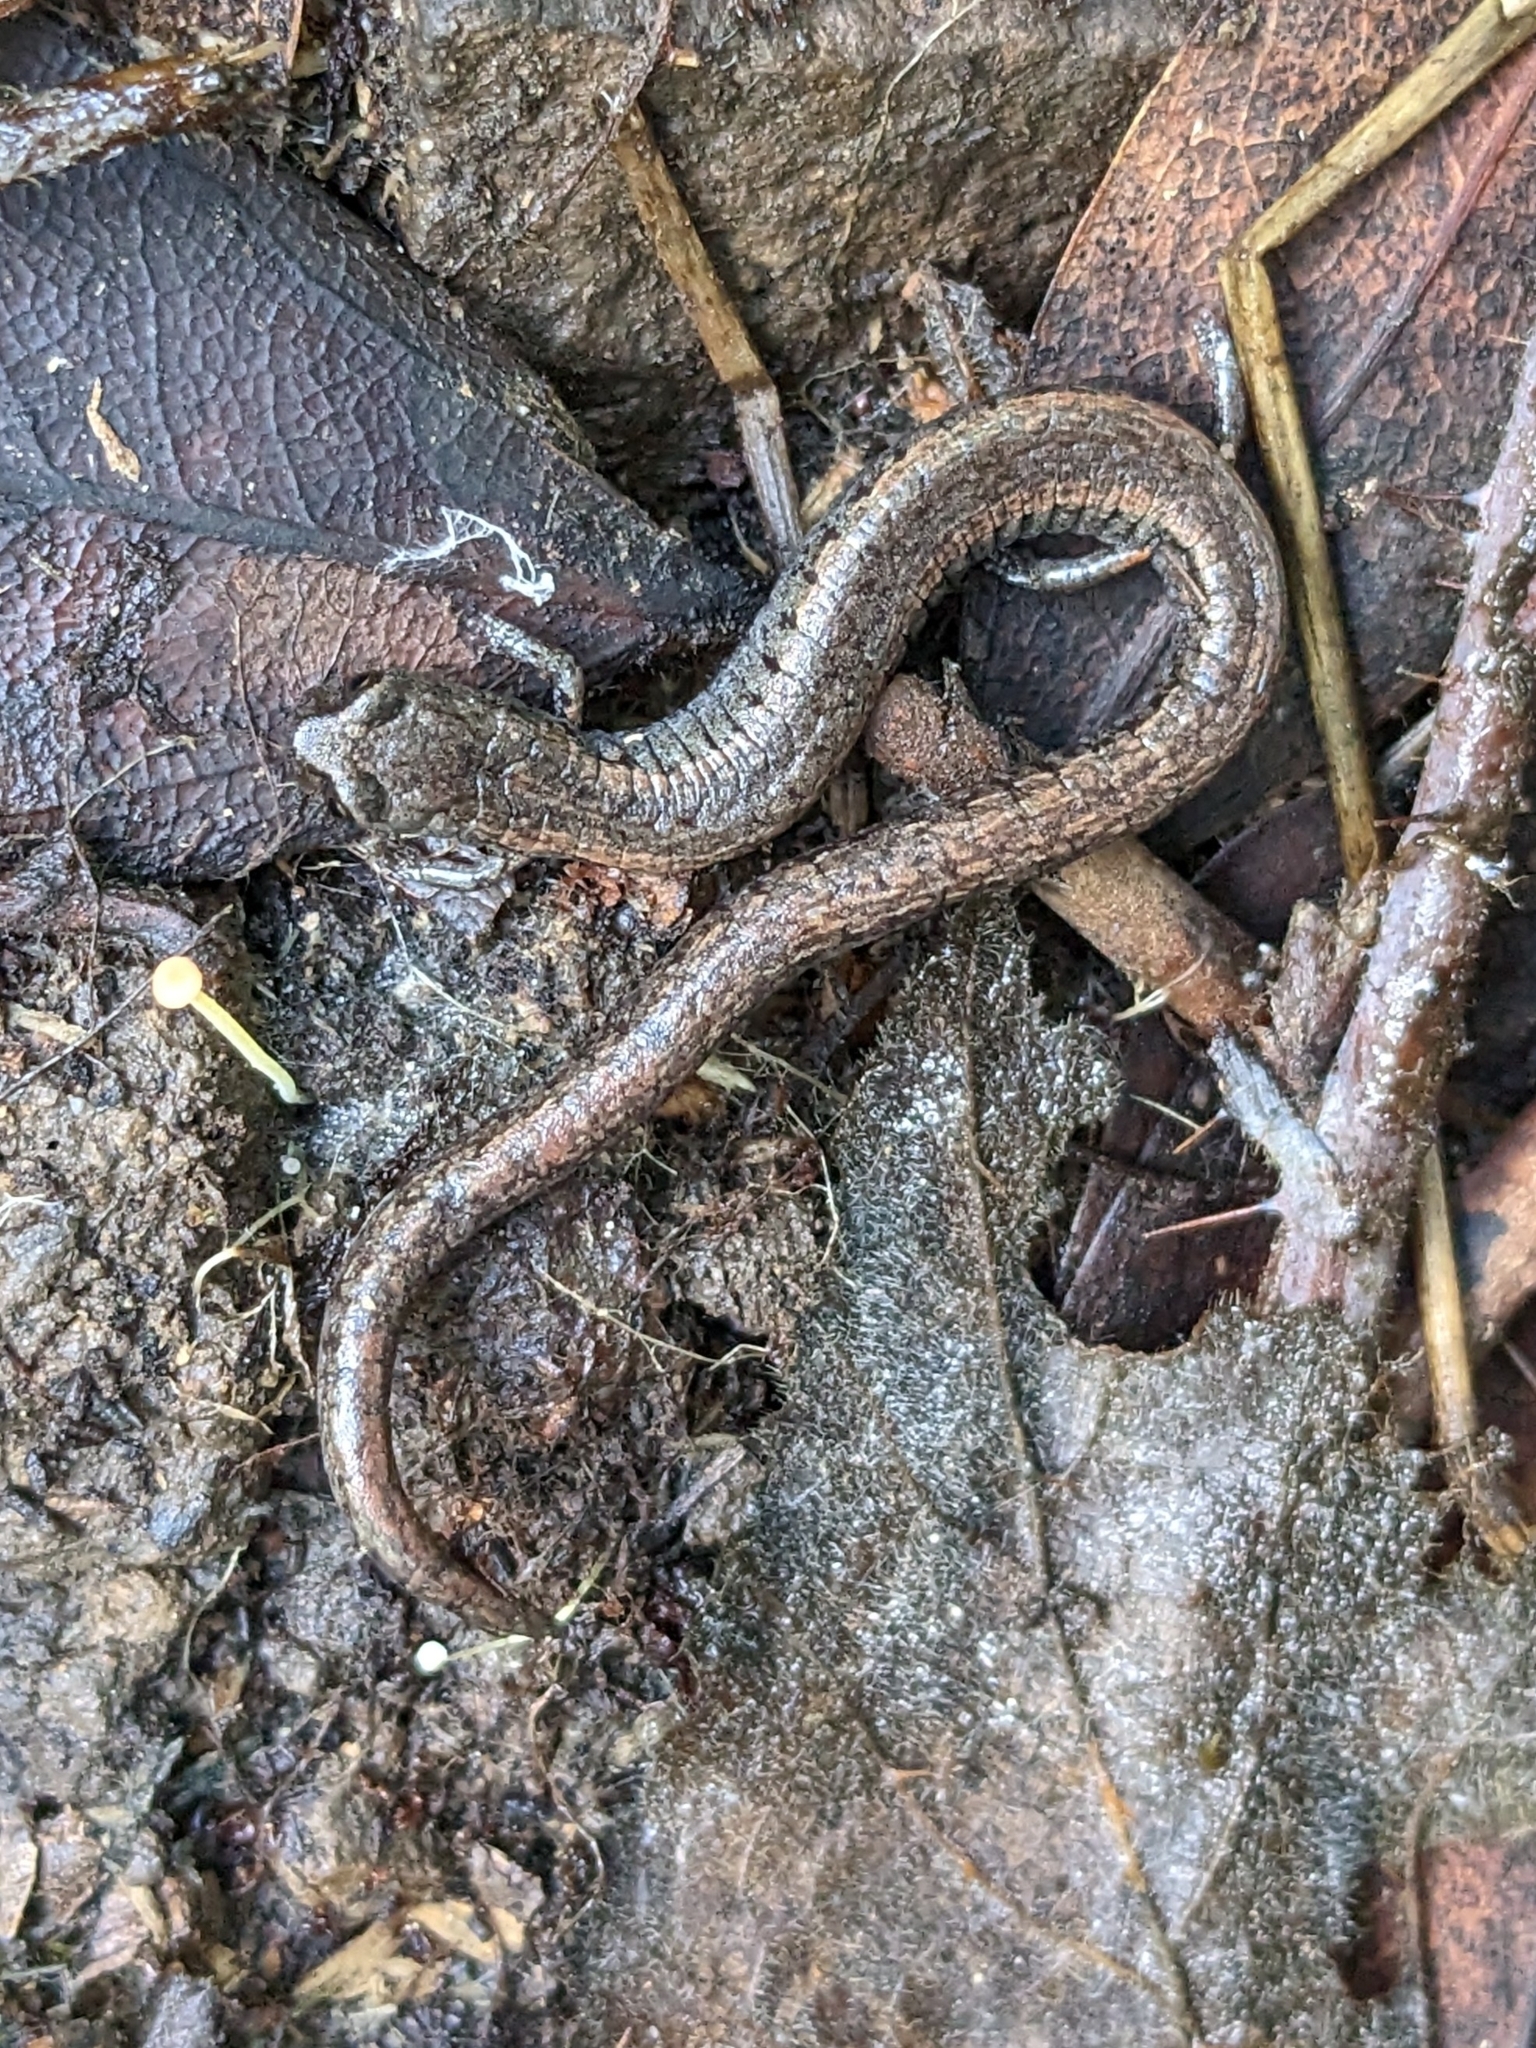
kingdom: Animalia
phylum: Chordata
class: Amphibia
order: Caudata
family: Plethodontidae
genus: Batrachoseps
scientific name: Batrachoseps attenuatus
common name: California slender salamander
